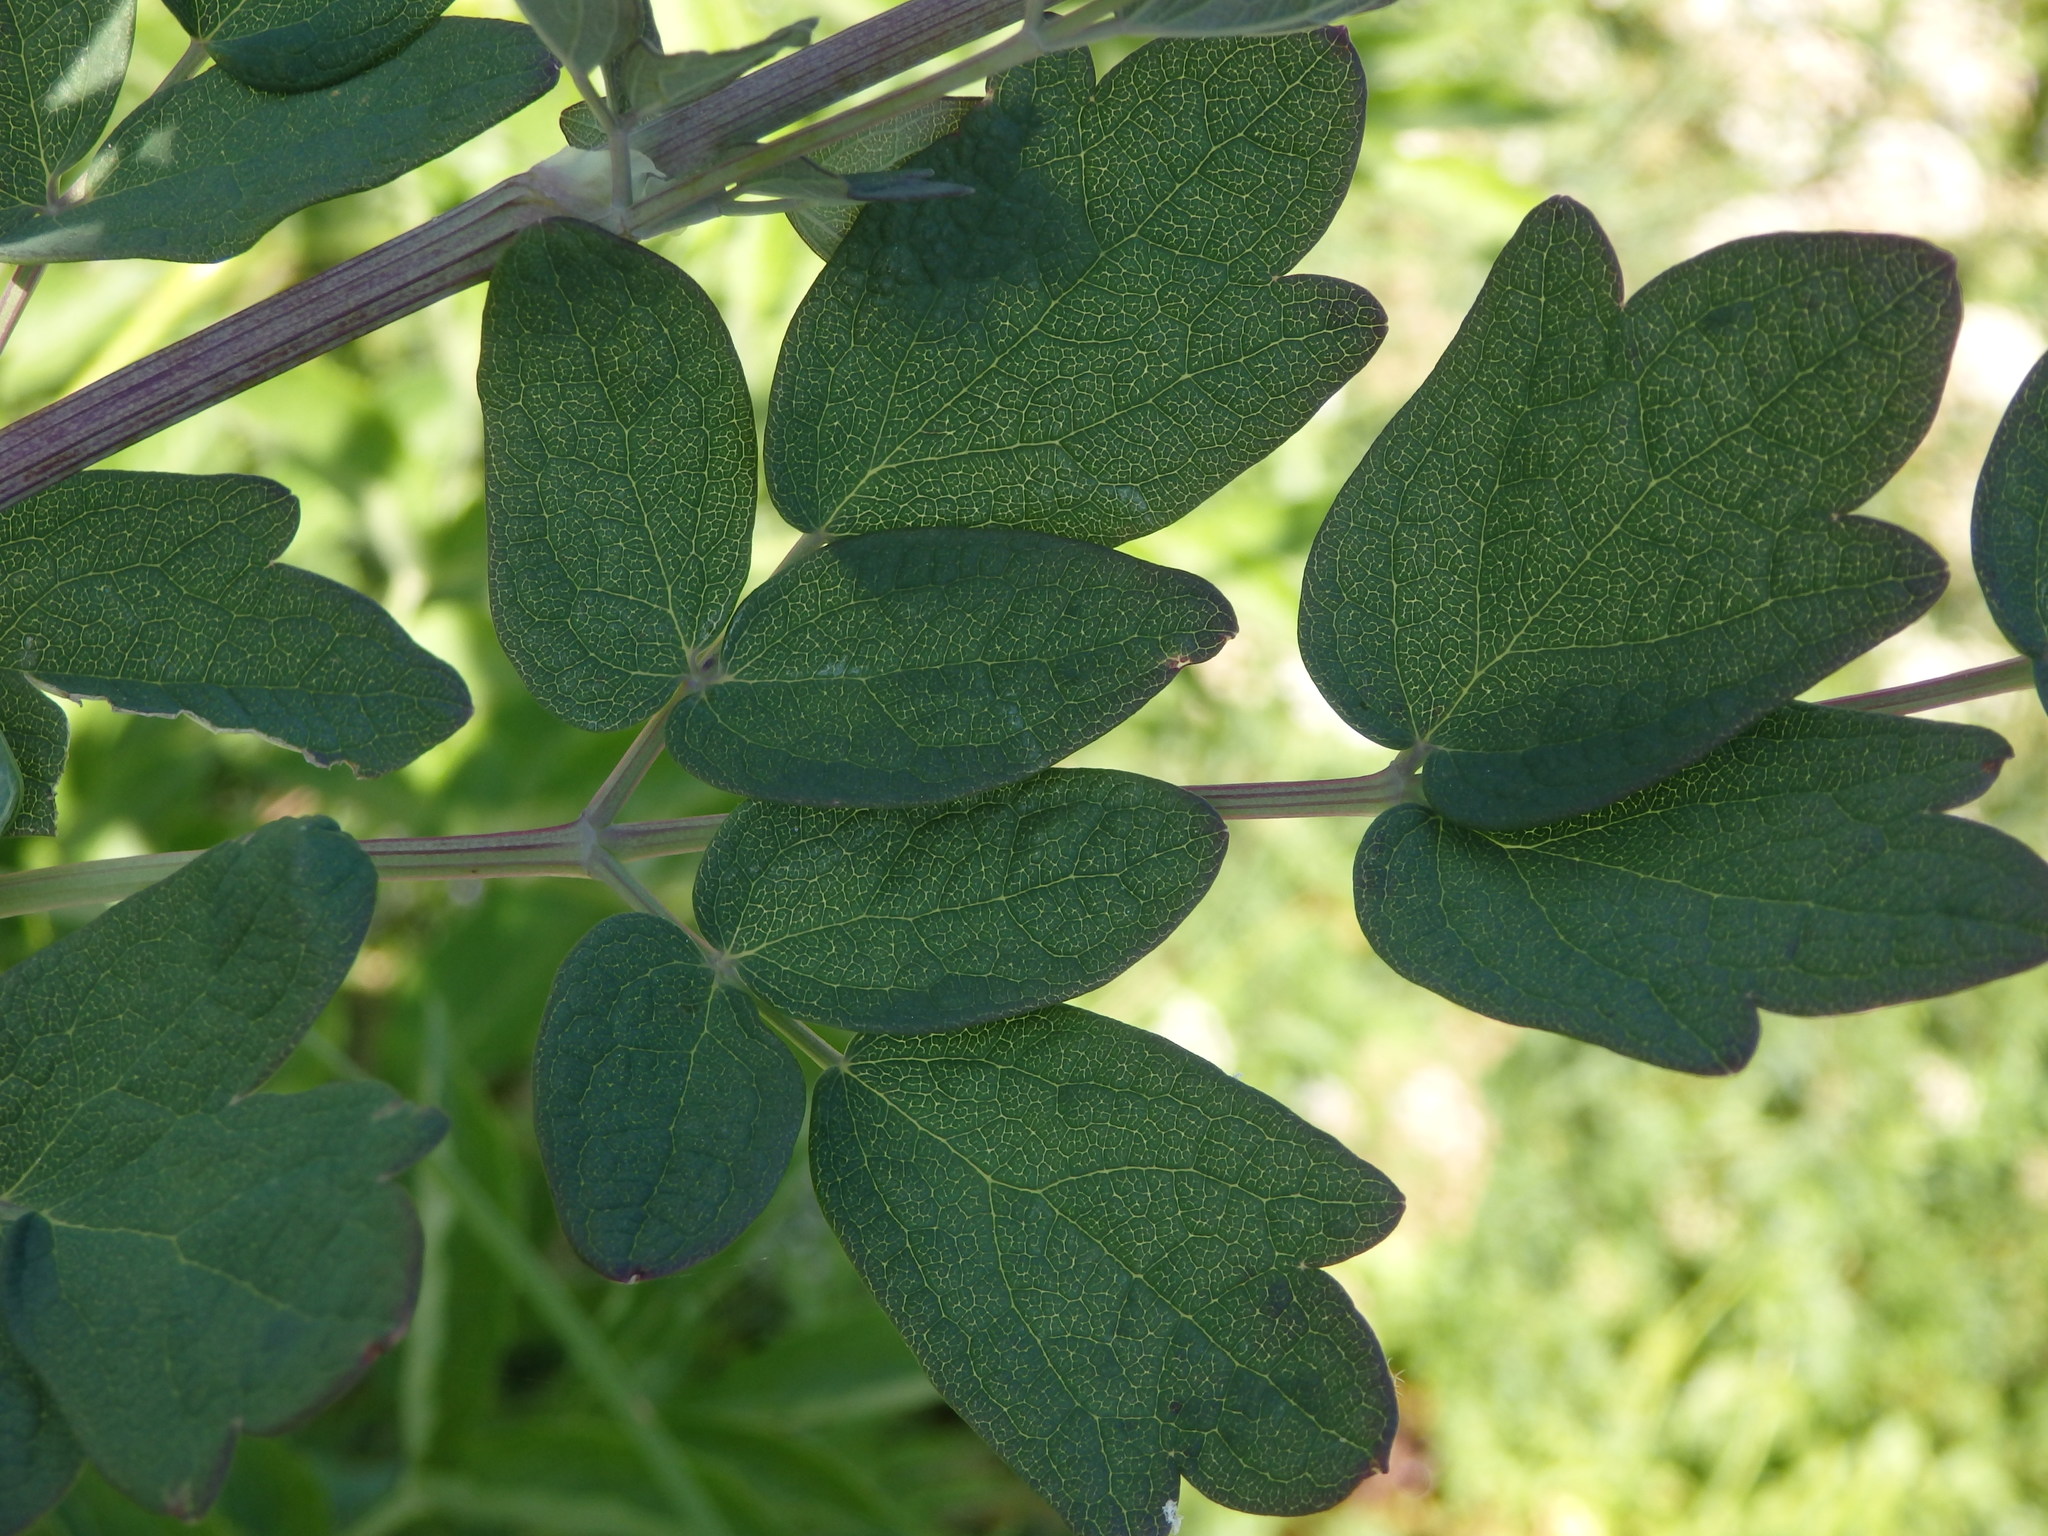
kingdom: Plantae
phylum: Tracheophyta
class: Magnoliopsida
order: Ranunculales
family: Ranunculaceae
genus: Thalictrum
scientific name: Thalictrum speciosissimum
